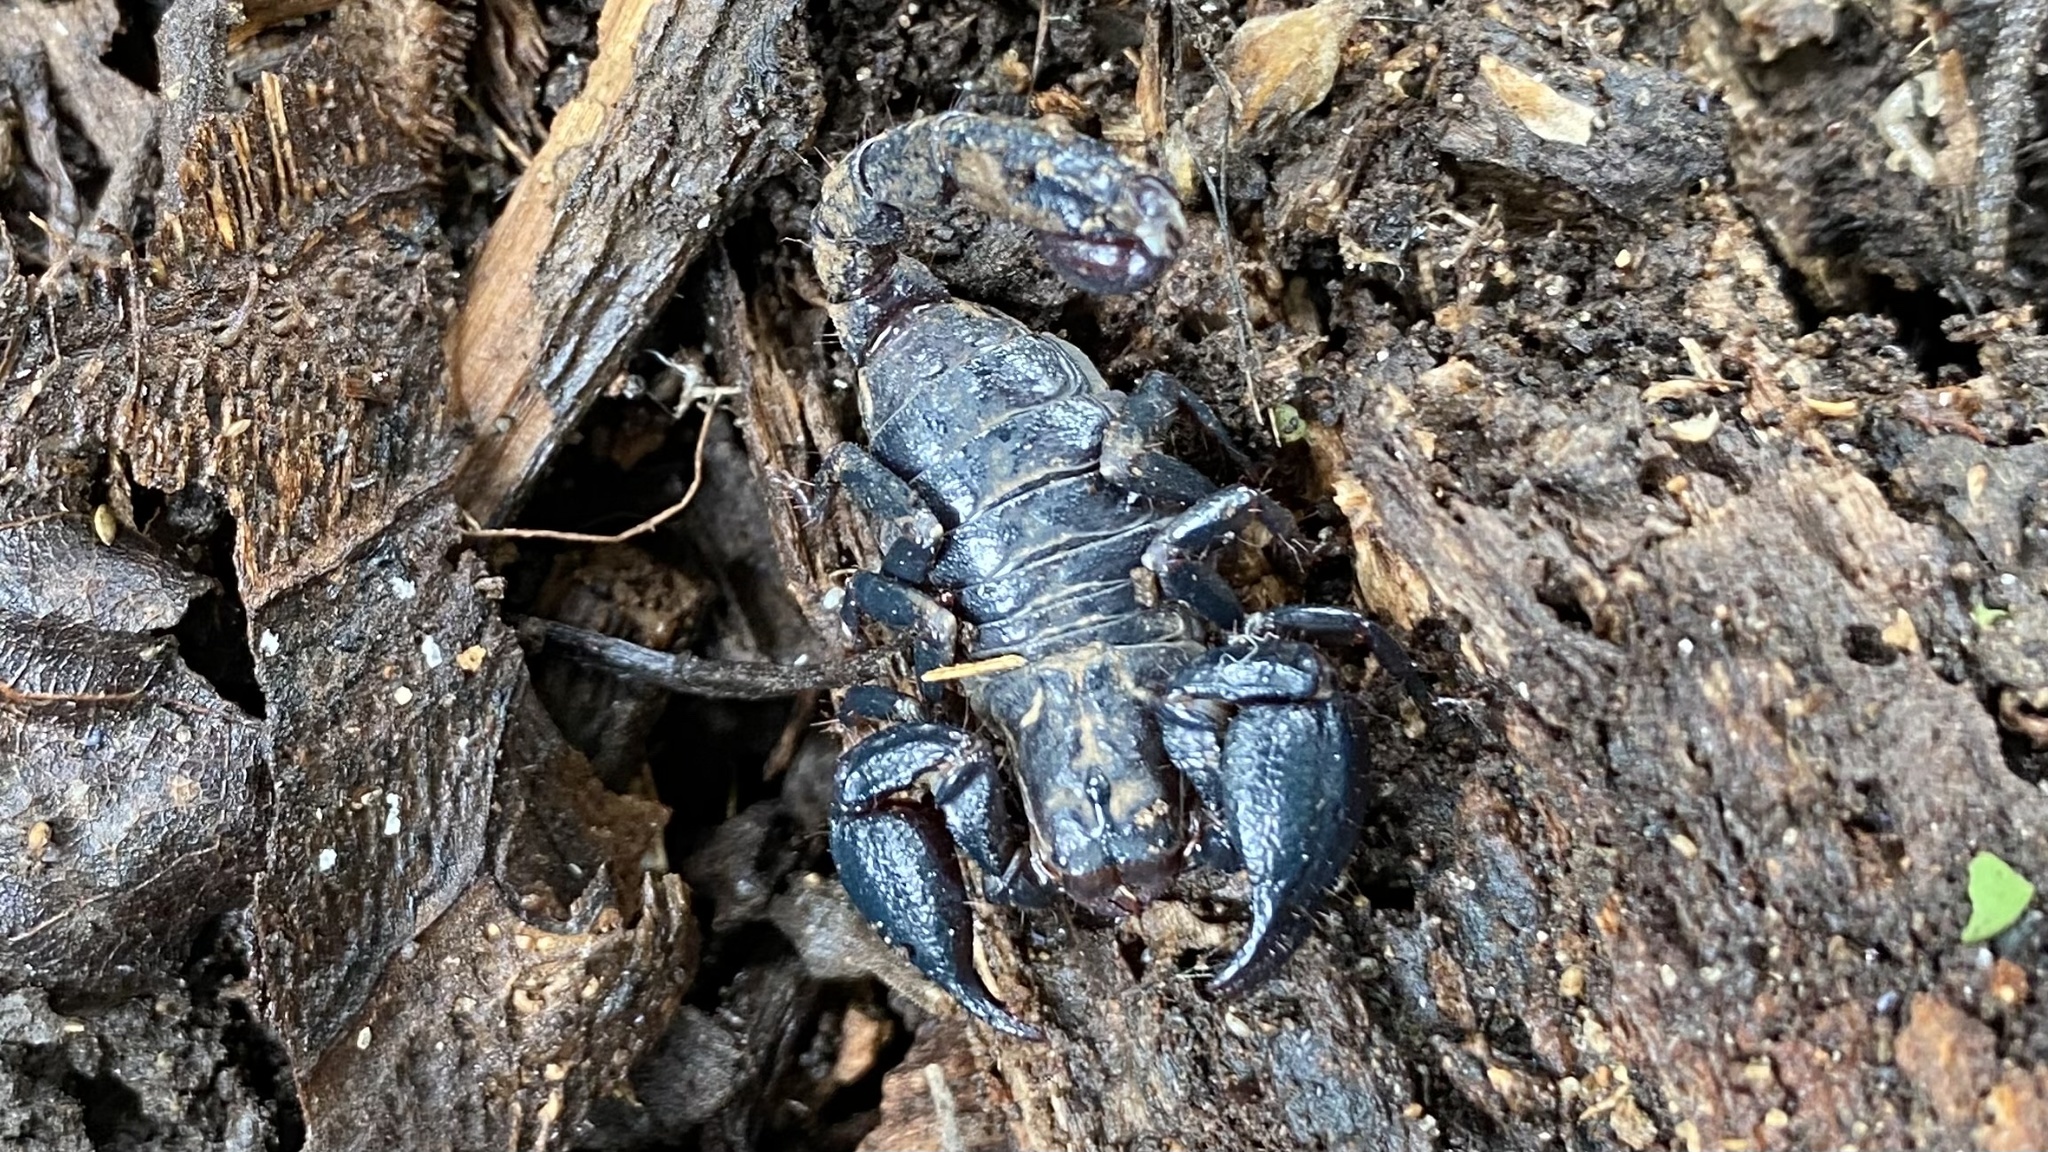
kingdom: Animalia
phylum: Arthropoda
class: Arachnida
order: Scorpiones
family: Chactidae
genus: Teuthraustes
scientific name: Teuthraustes atramentarius
